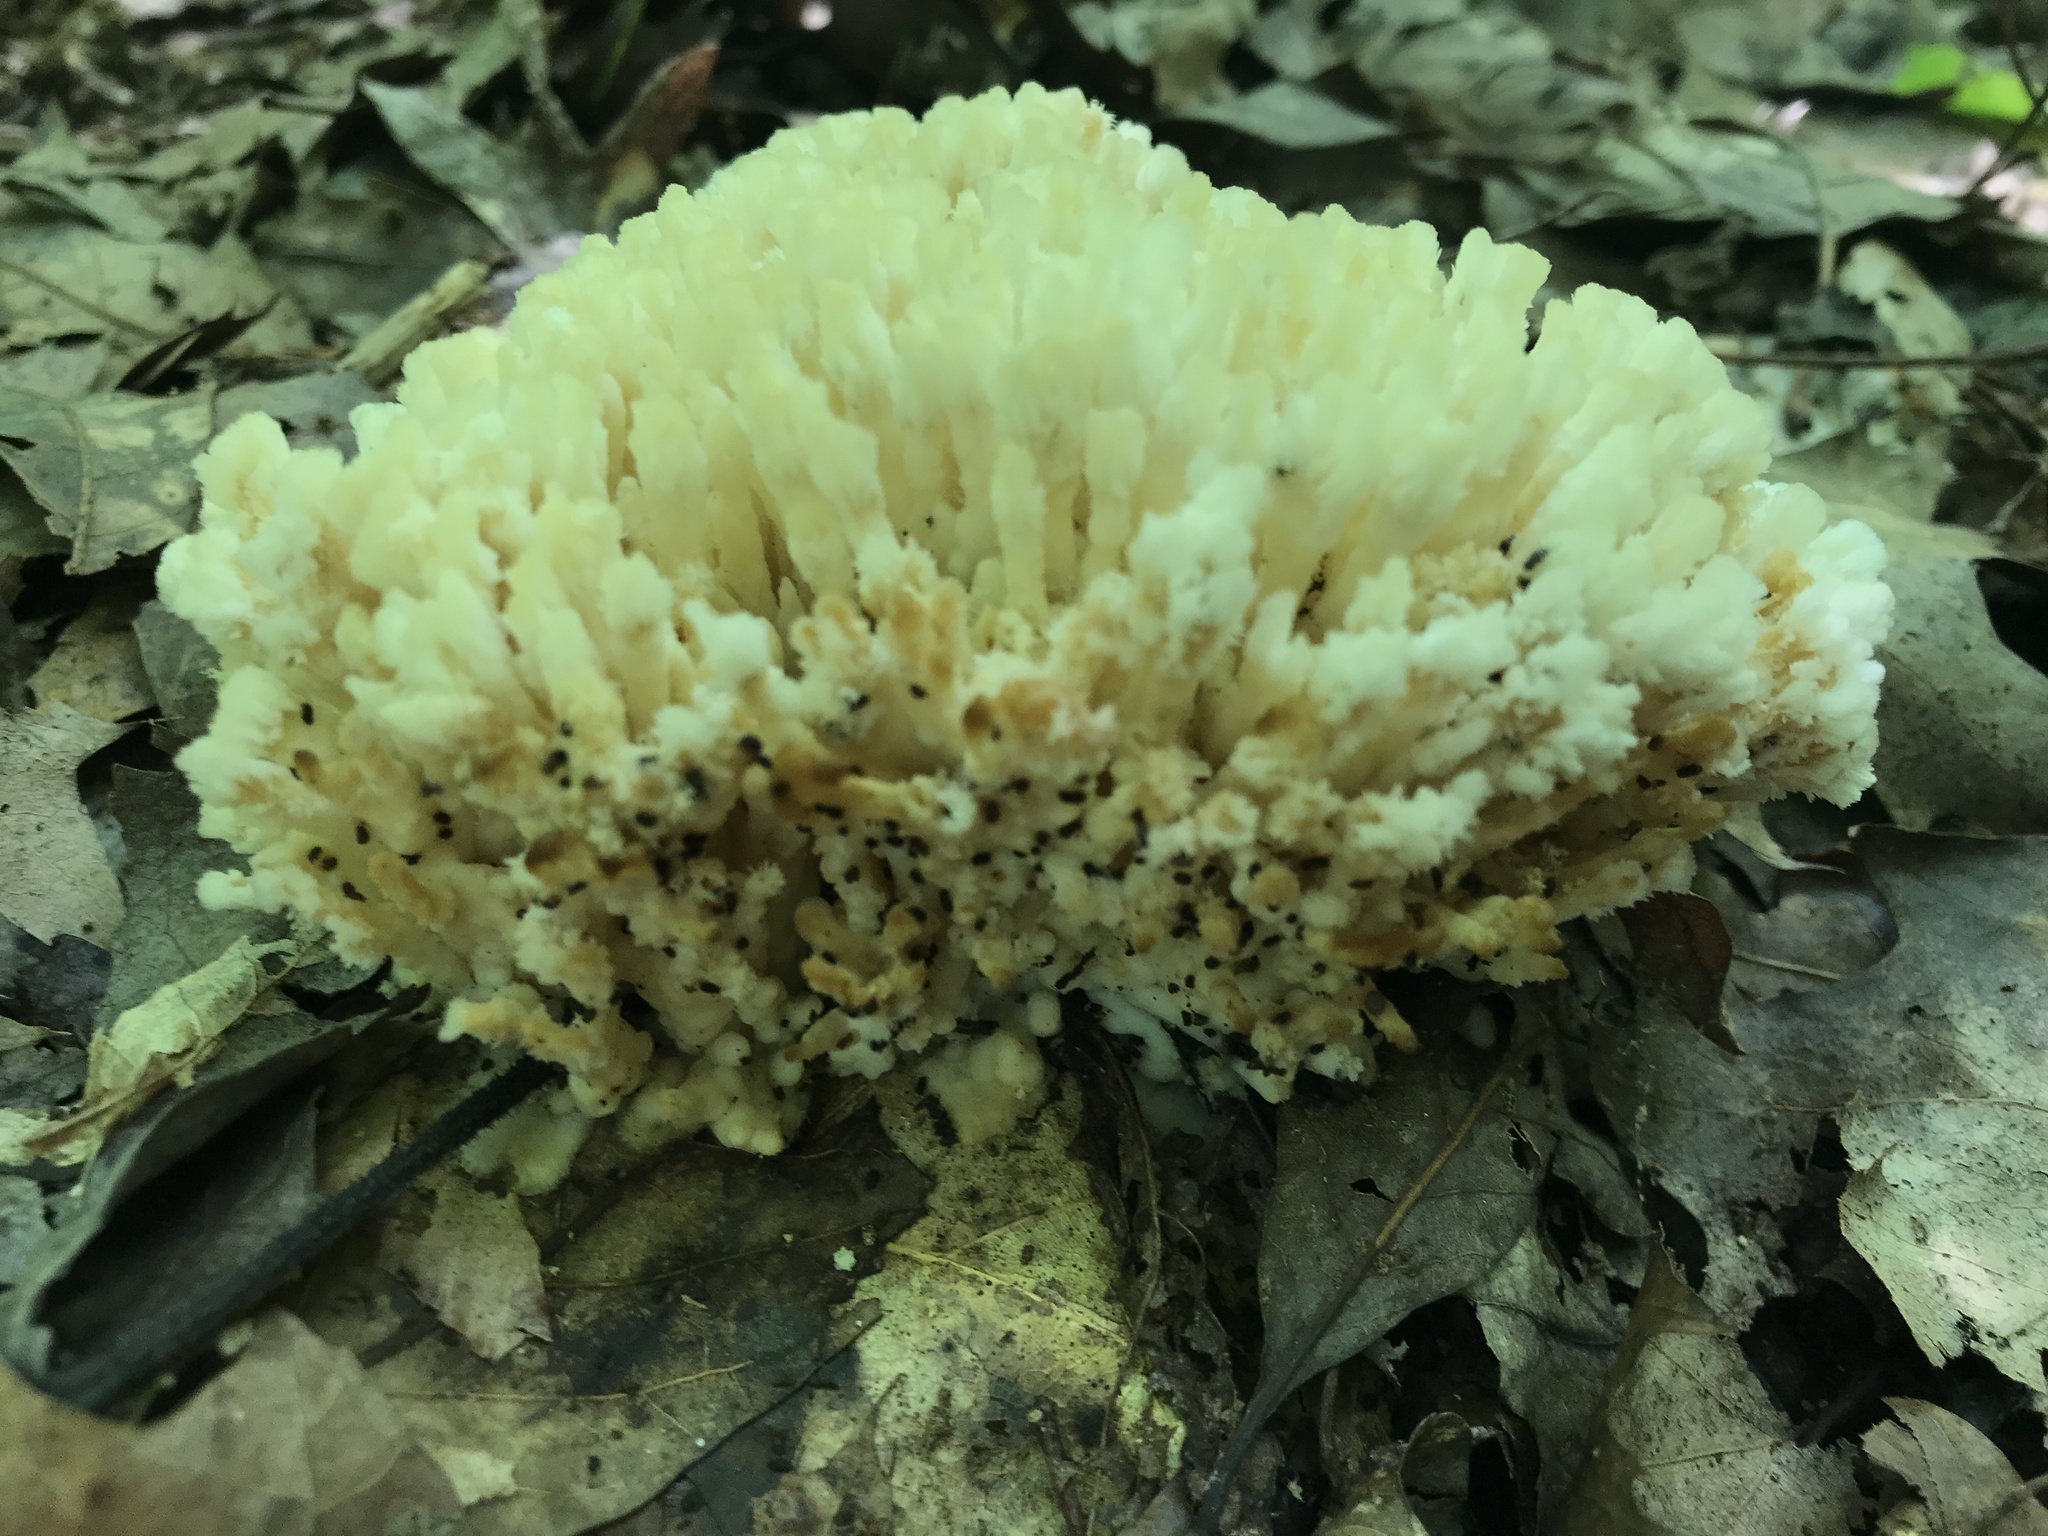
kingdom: Fungi
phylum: Basidiomycota
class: Agaricomycetes
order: Sebacinales
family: Sebacinaceae
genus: Sebacina
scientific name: Sebacina schweinitzii
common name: Jellied false coral fungus
